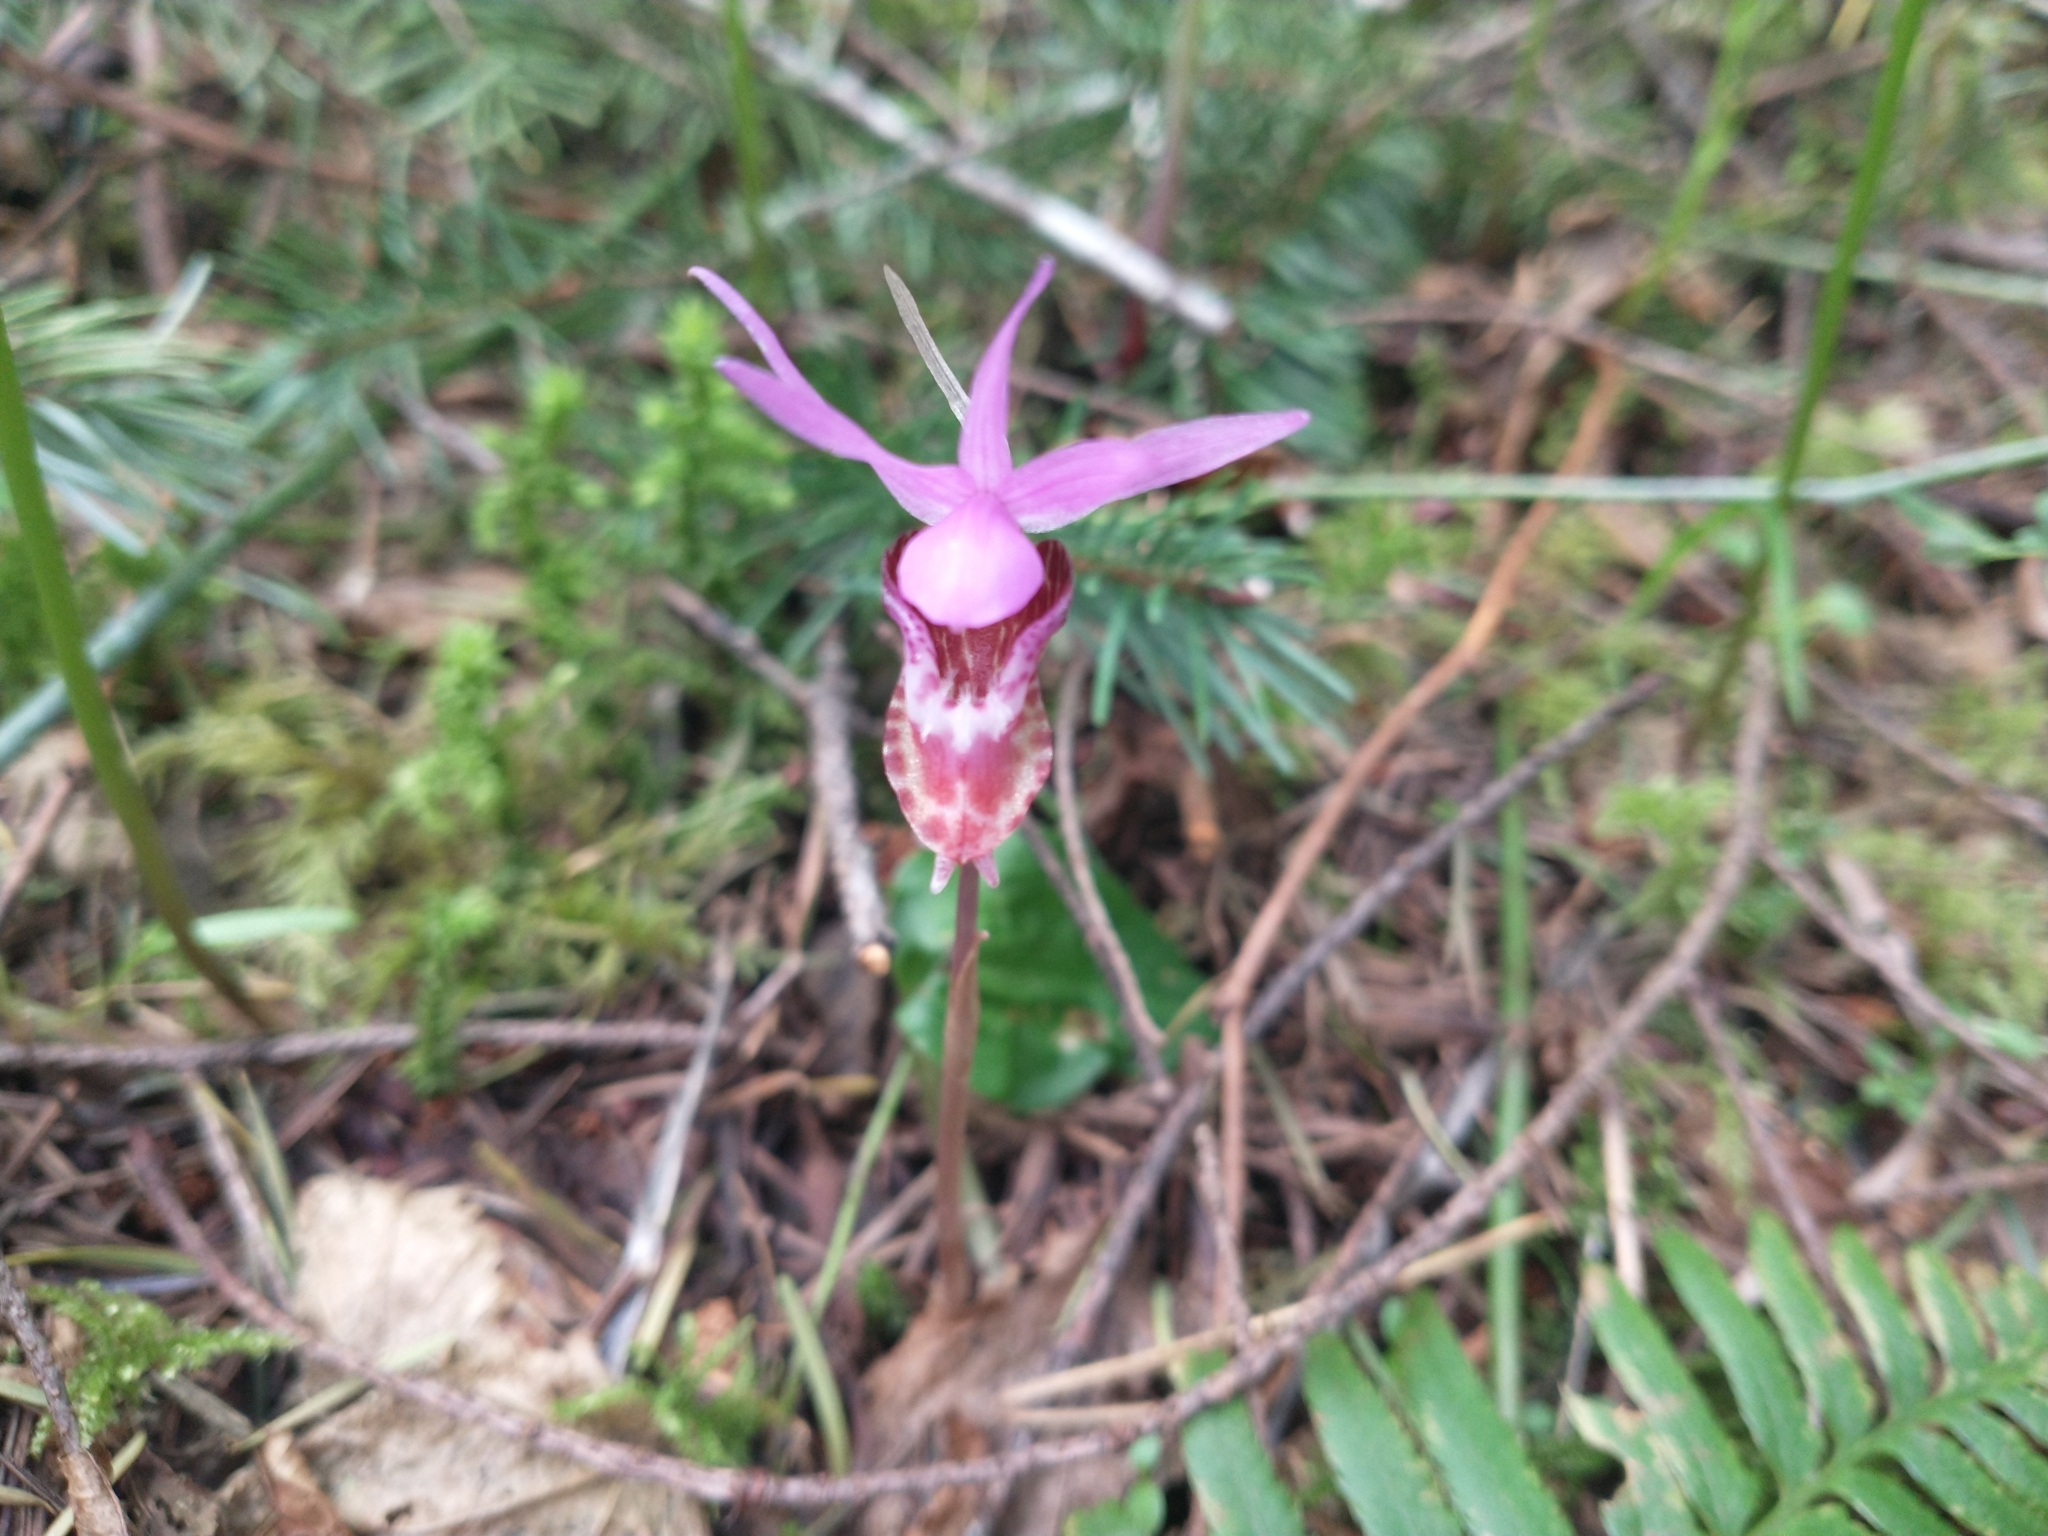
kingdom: Plantae
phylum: Tracheophyta
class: Liliopsida
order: Asparagales
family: Orchidaceae
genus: Calypso
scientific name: Calypso bulbosa
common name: Calypso
